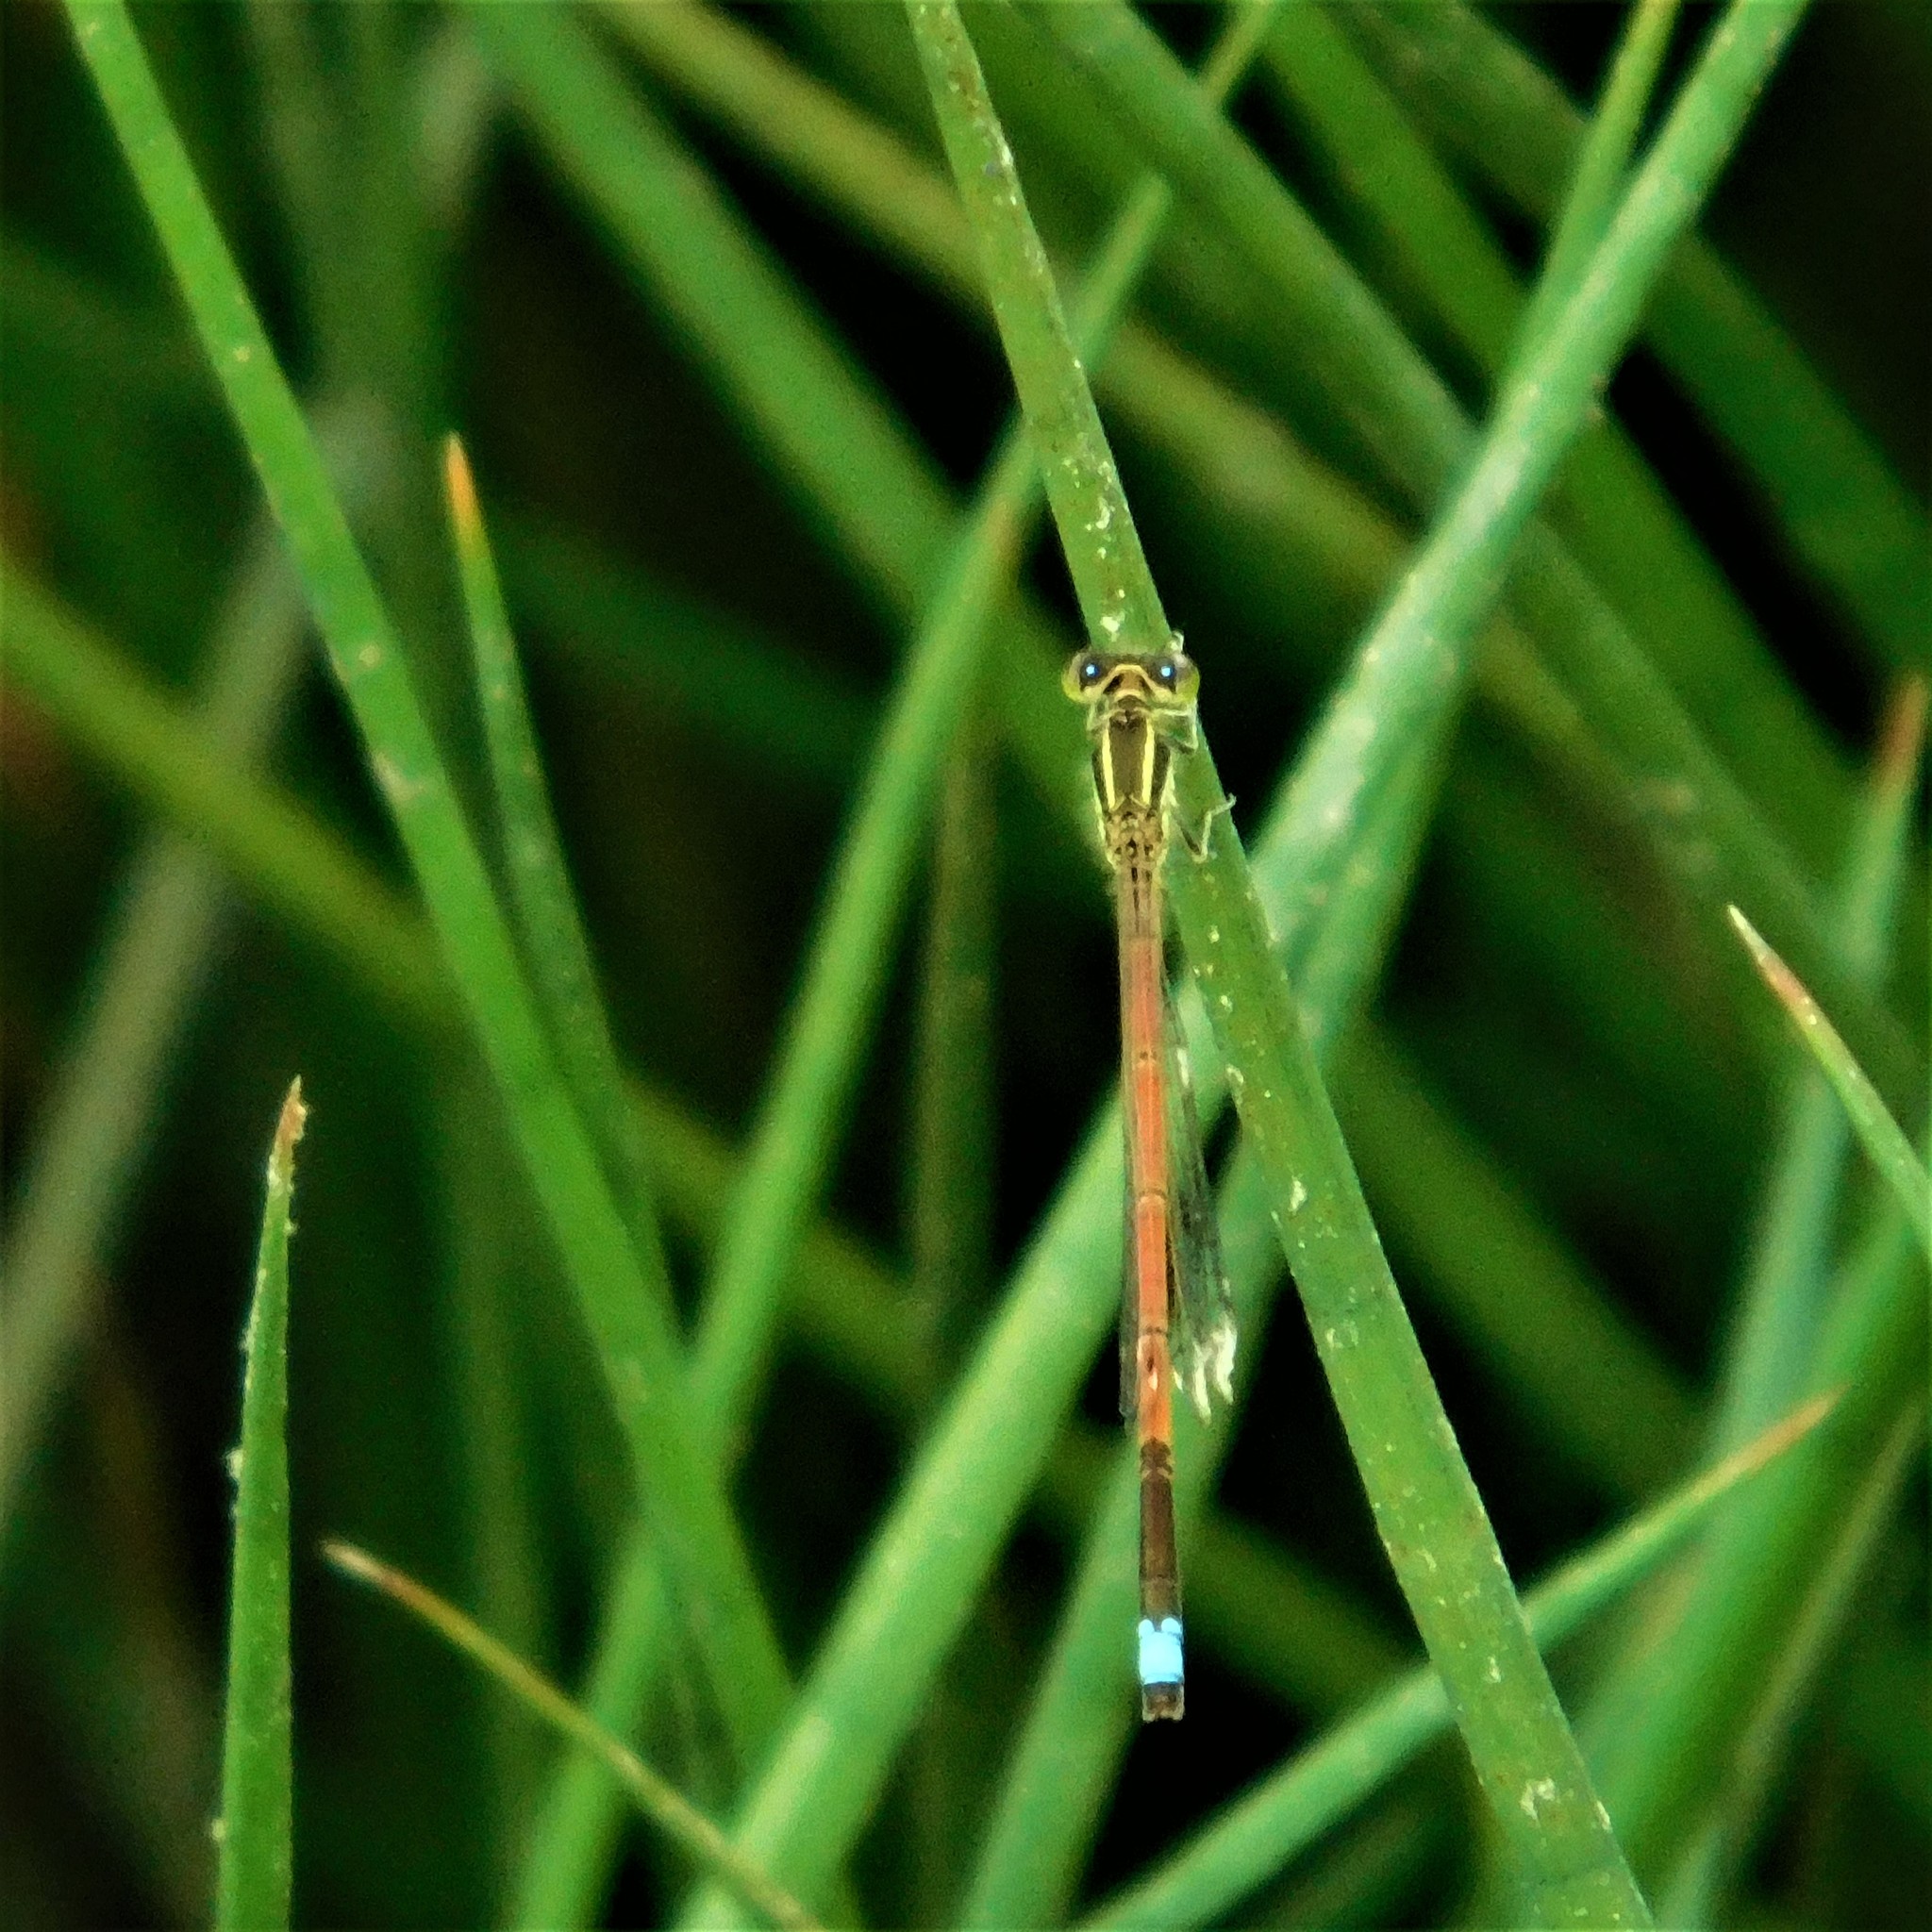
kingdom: Animalia
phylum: Arthropoda
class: Insecta
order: Odonata
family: Coenagrionidae
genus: Ischnura
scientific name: Ischnura aurora
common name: Gossamer damselfly
